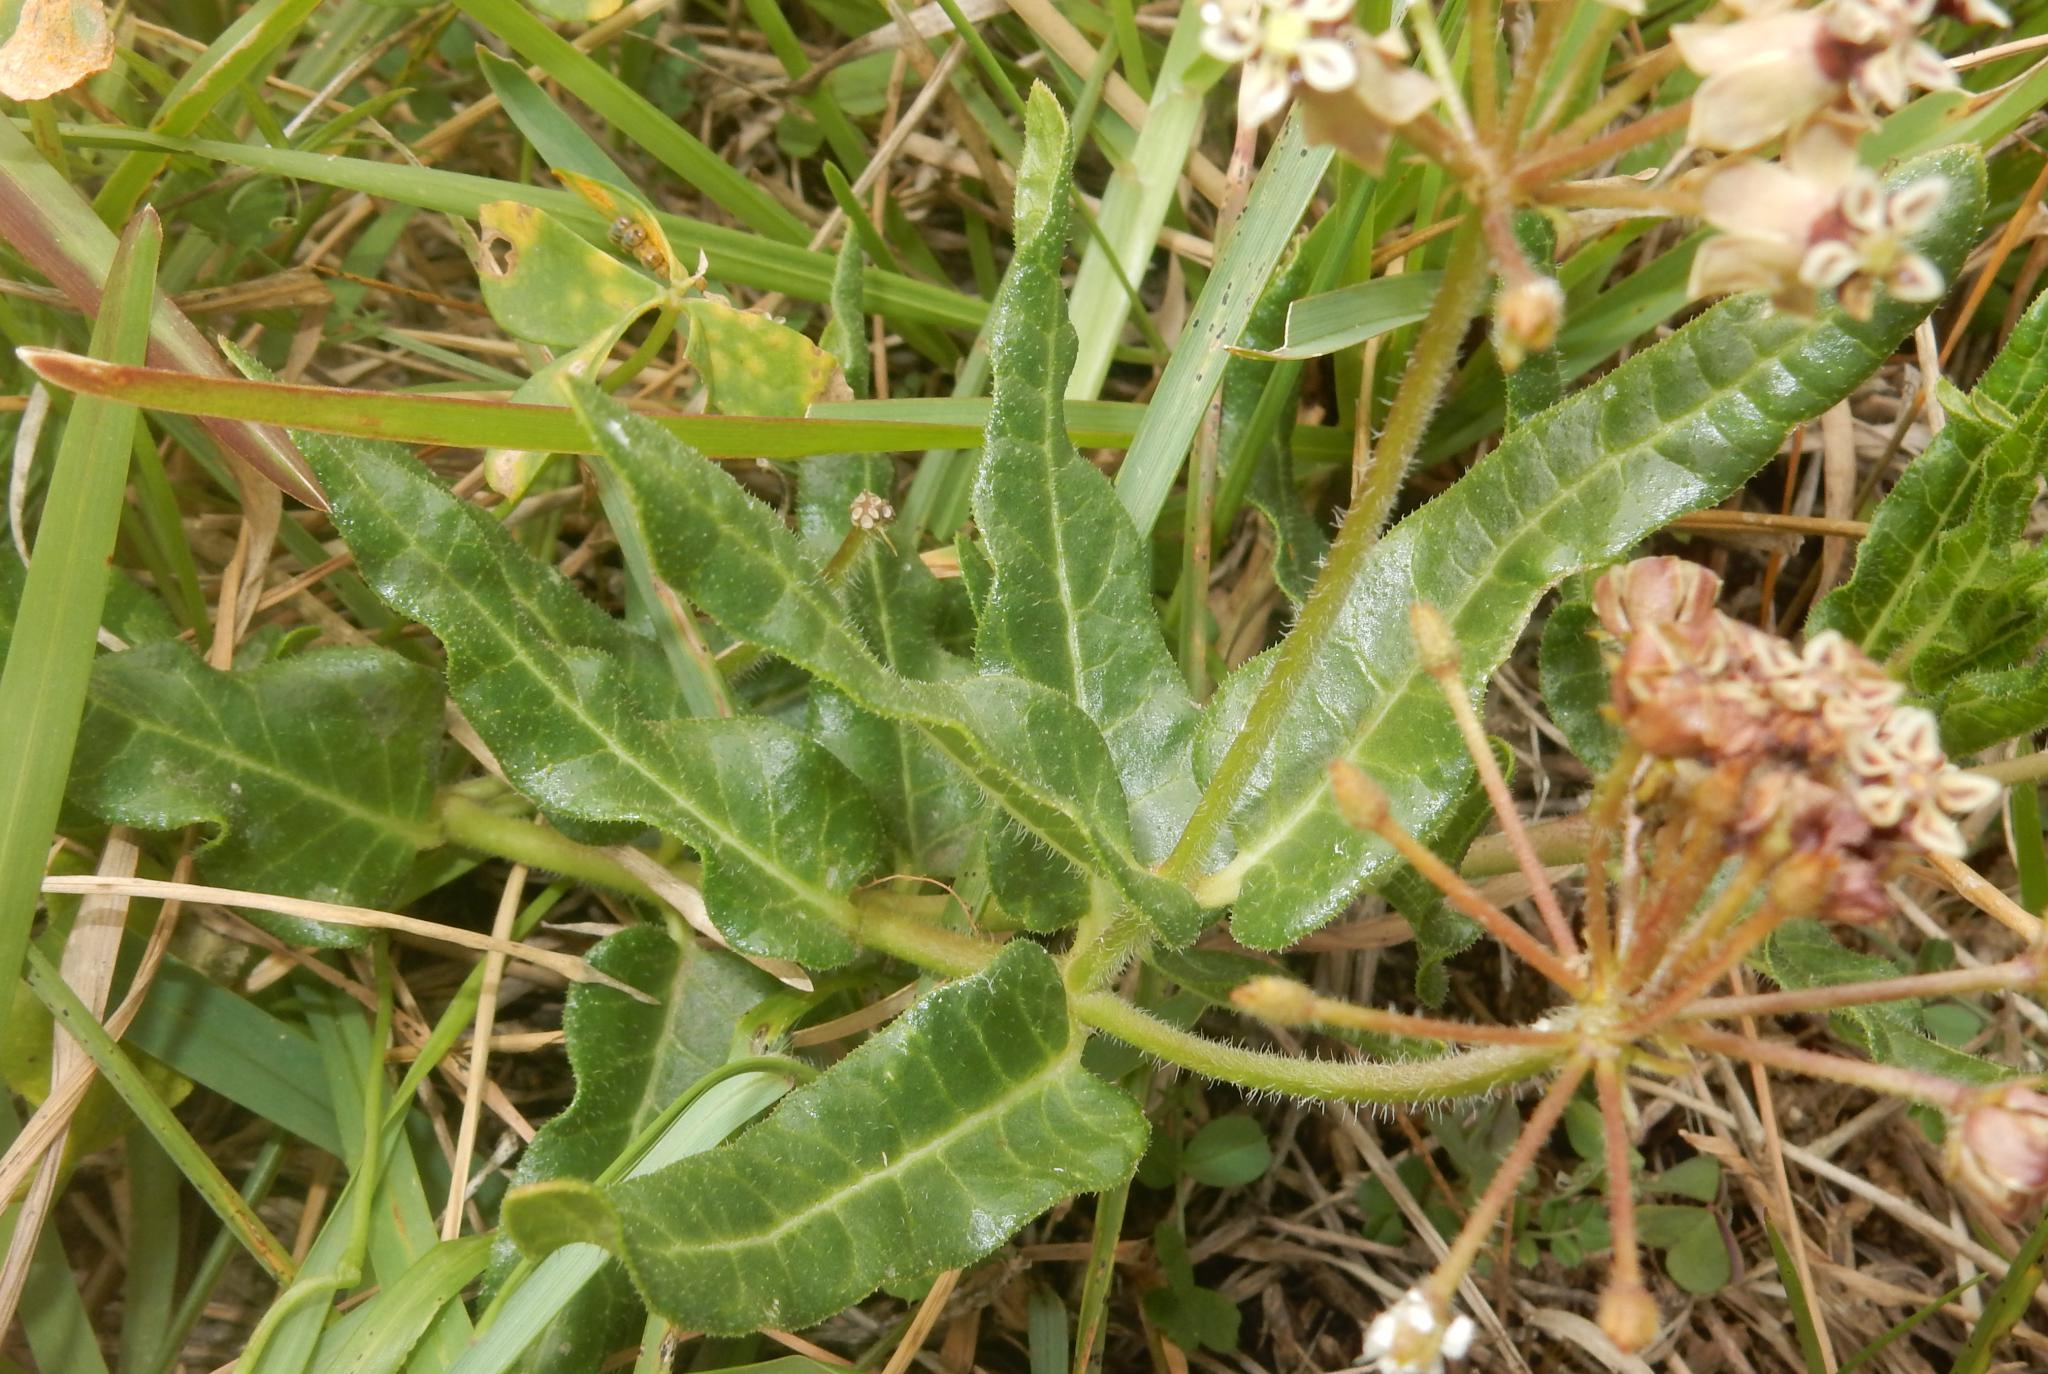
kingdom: Plantae
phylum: Tracheophyta
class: Magnoliopsida
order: Gentianales
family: Apocynaceae
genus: Asclepias
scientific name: Asclepias crispa
